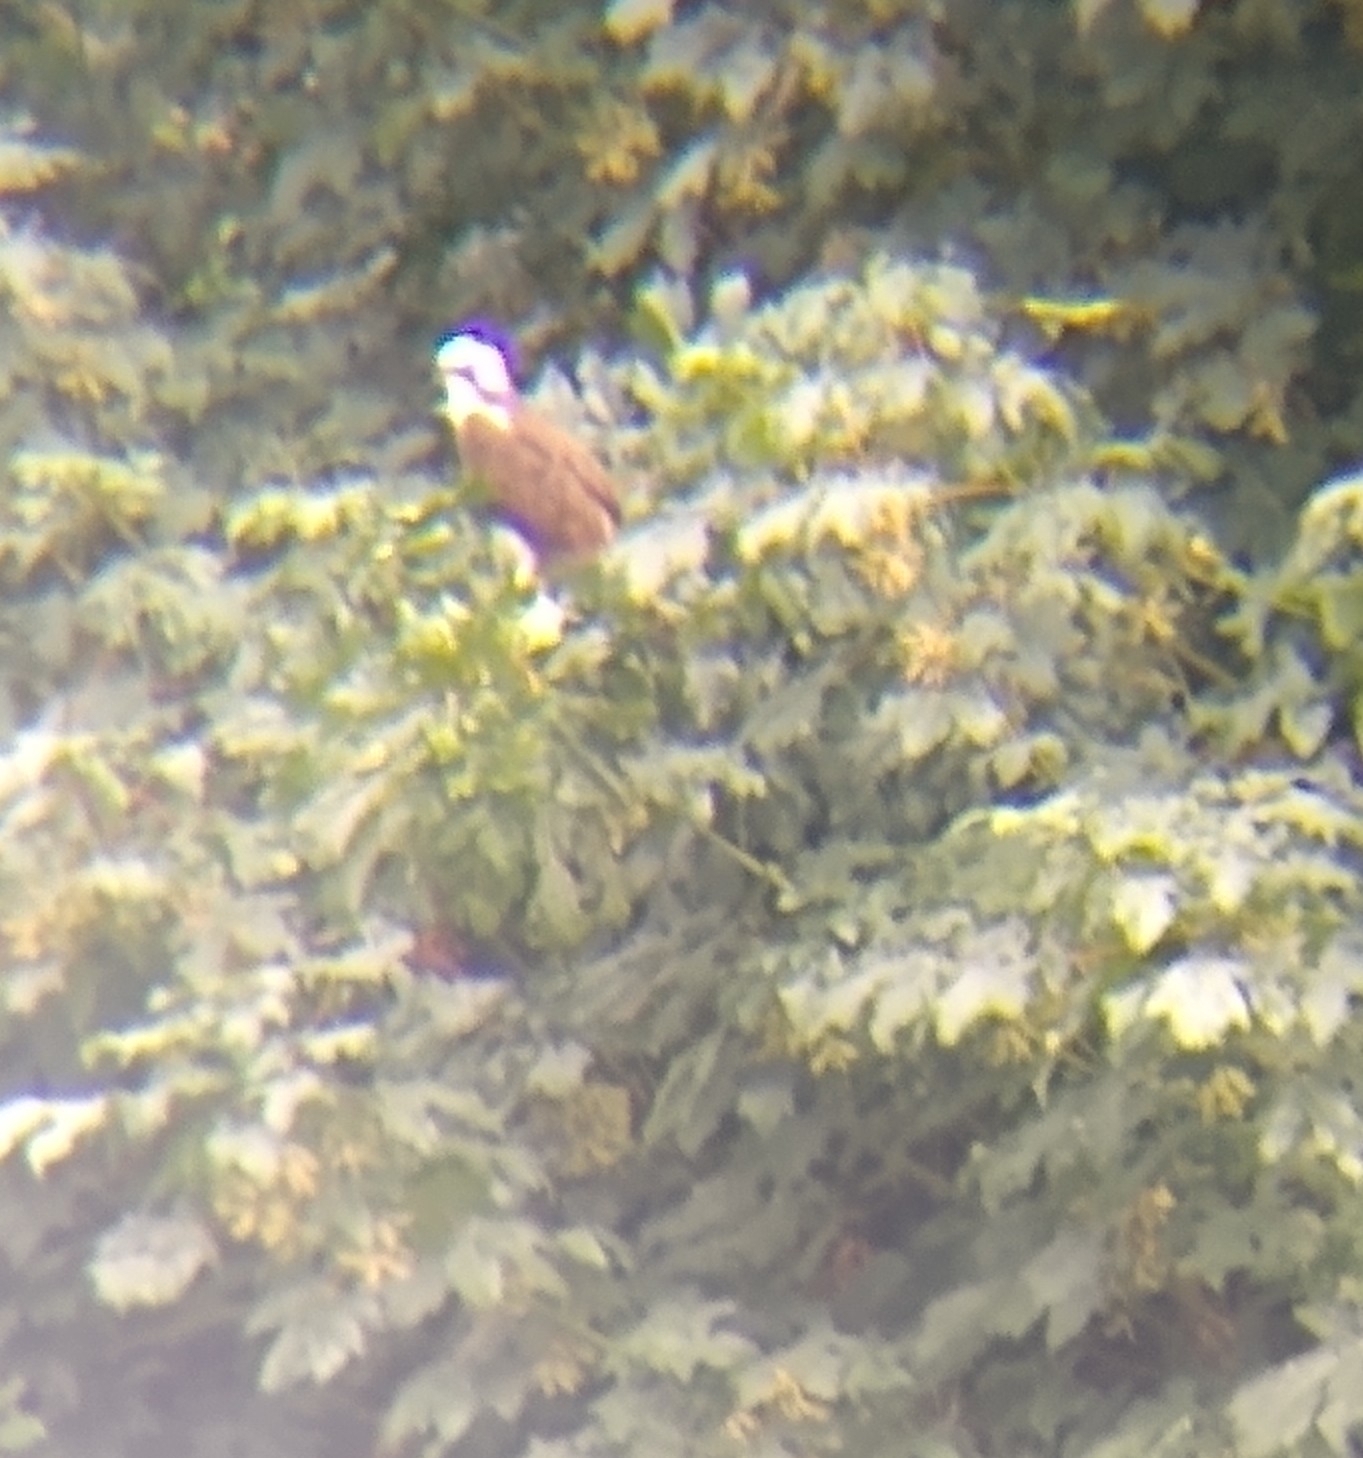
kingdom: Animalia
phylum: Chordata
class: Aves
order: Accipitriformes
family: Pandionidae
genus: Pandion
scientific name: Pandion haliaetus
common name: Osprey
